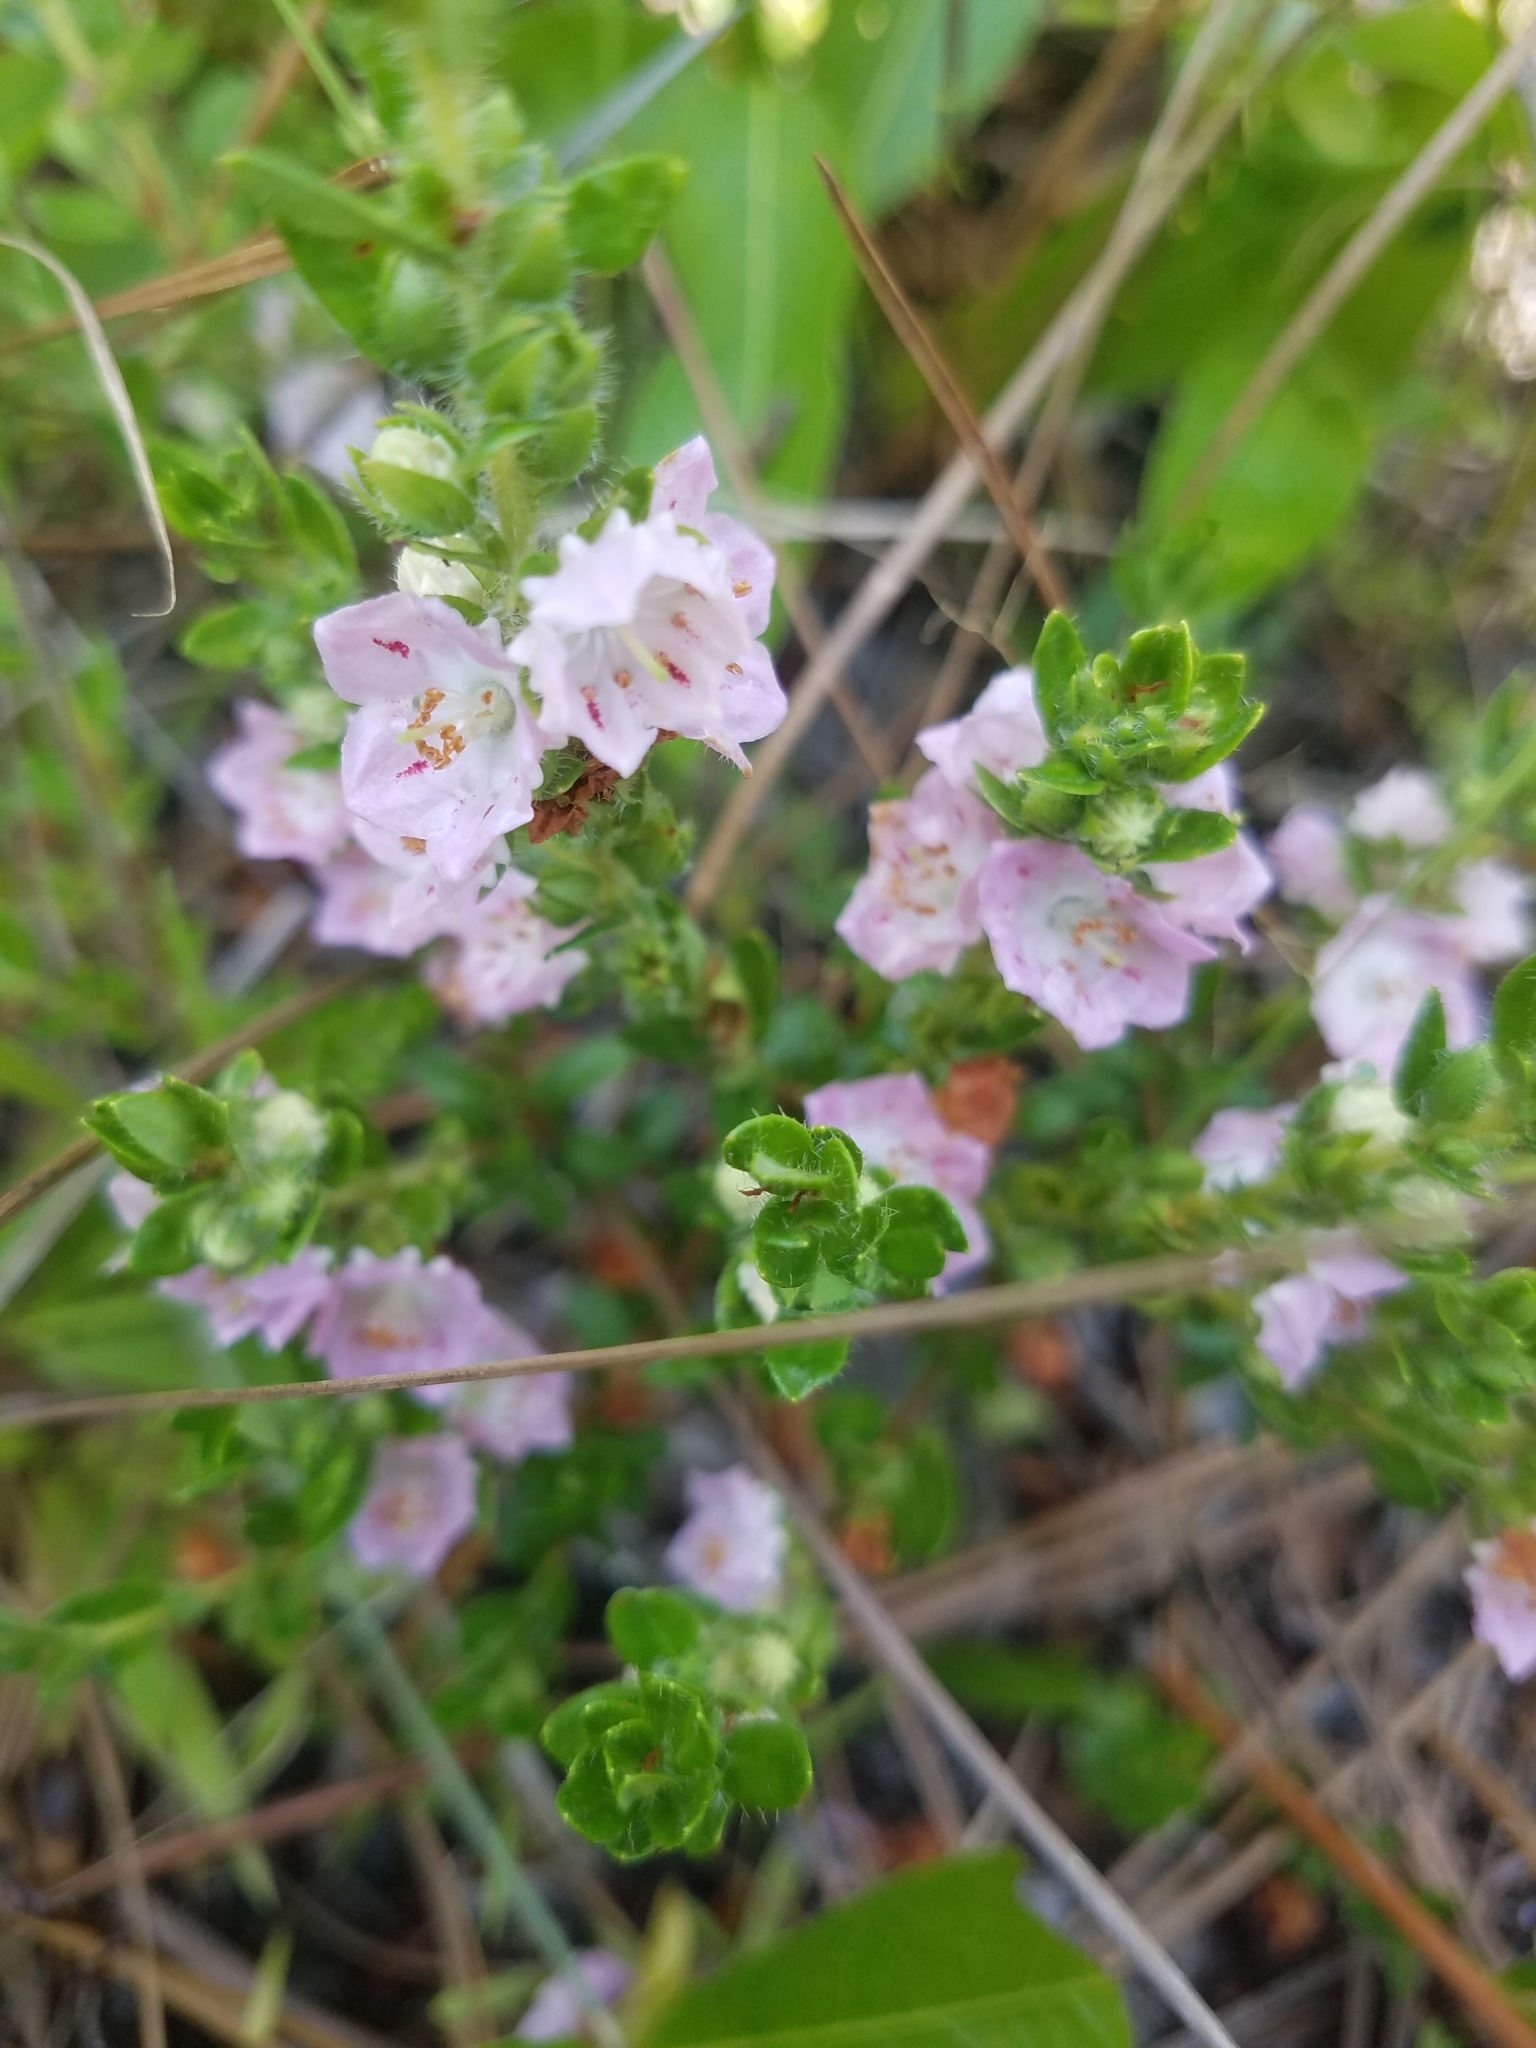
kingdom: Plantae
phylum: Tracheophyta
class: Magnoliopsida
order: Ericales
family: Ericaceae
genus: Kalmia
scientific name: Kalmia hirsuta
